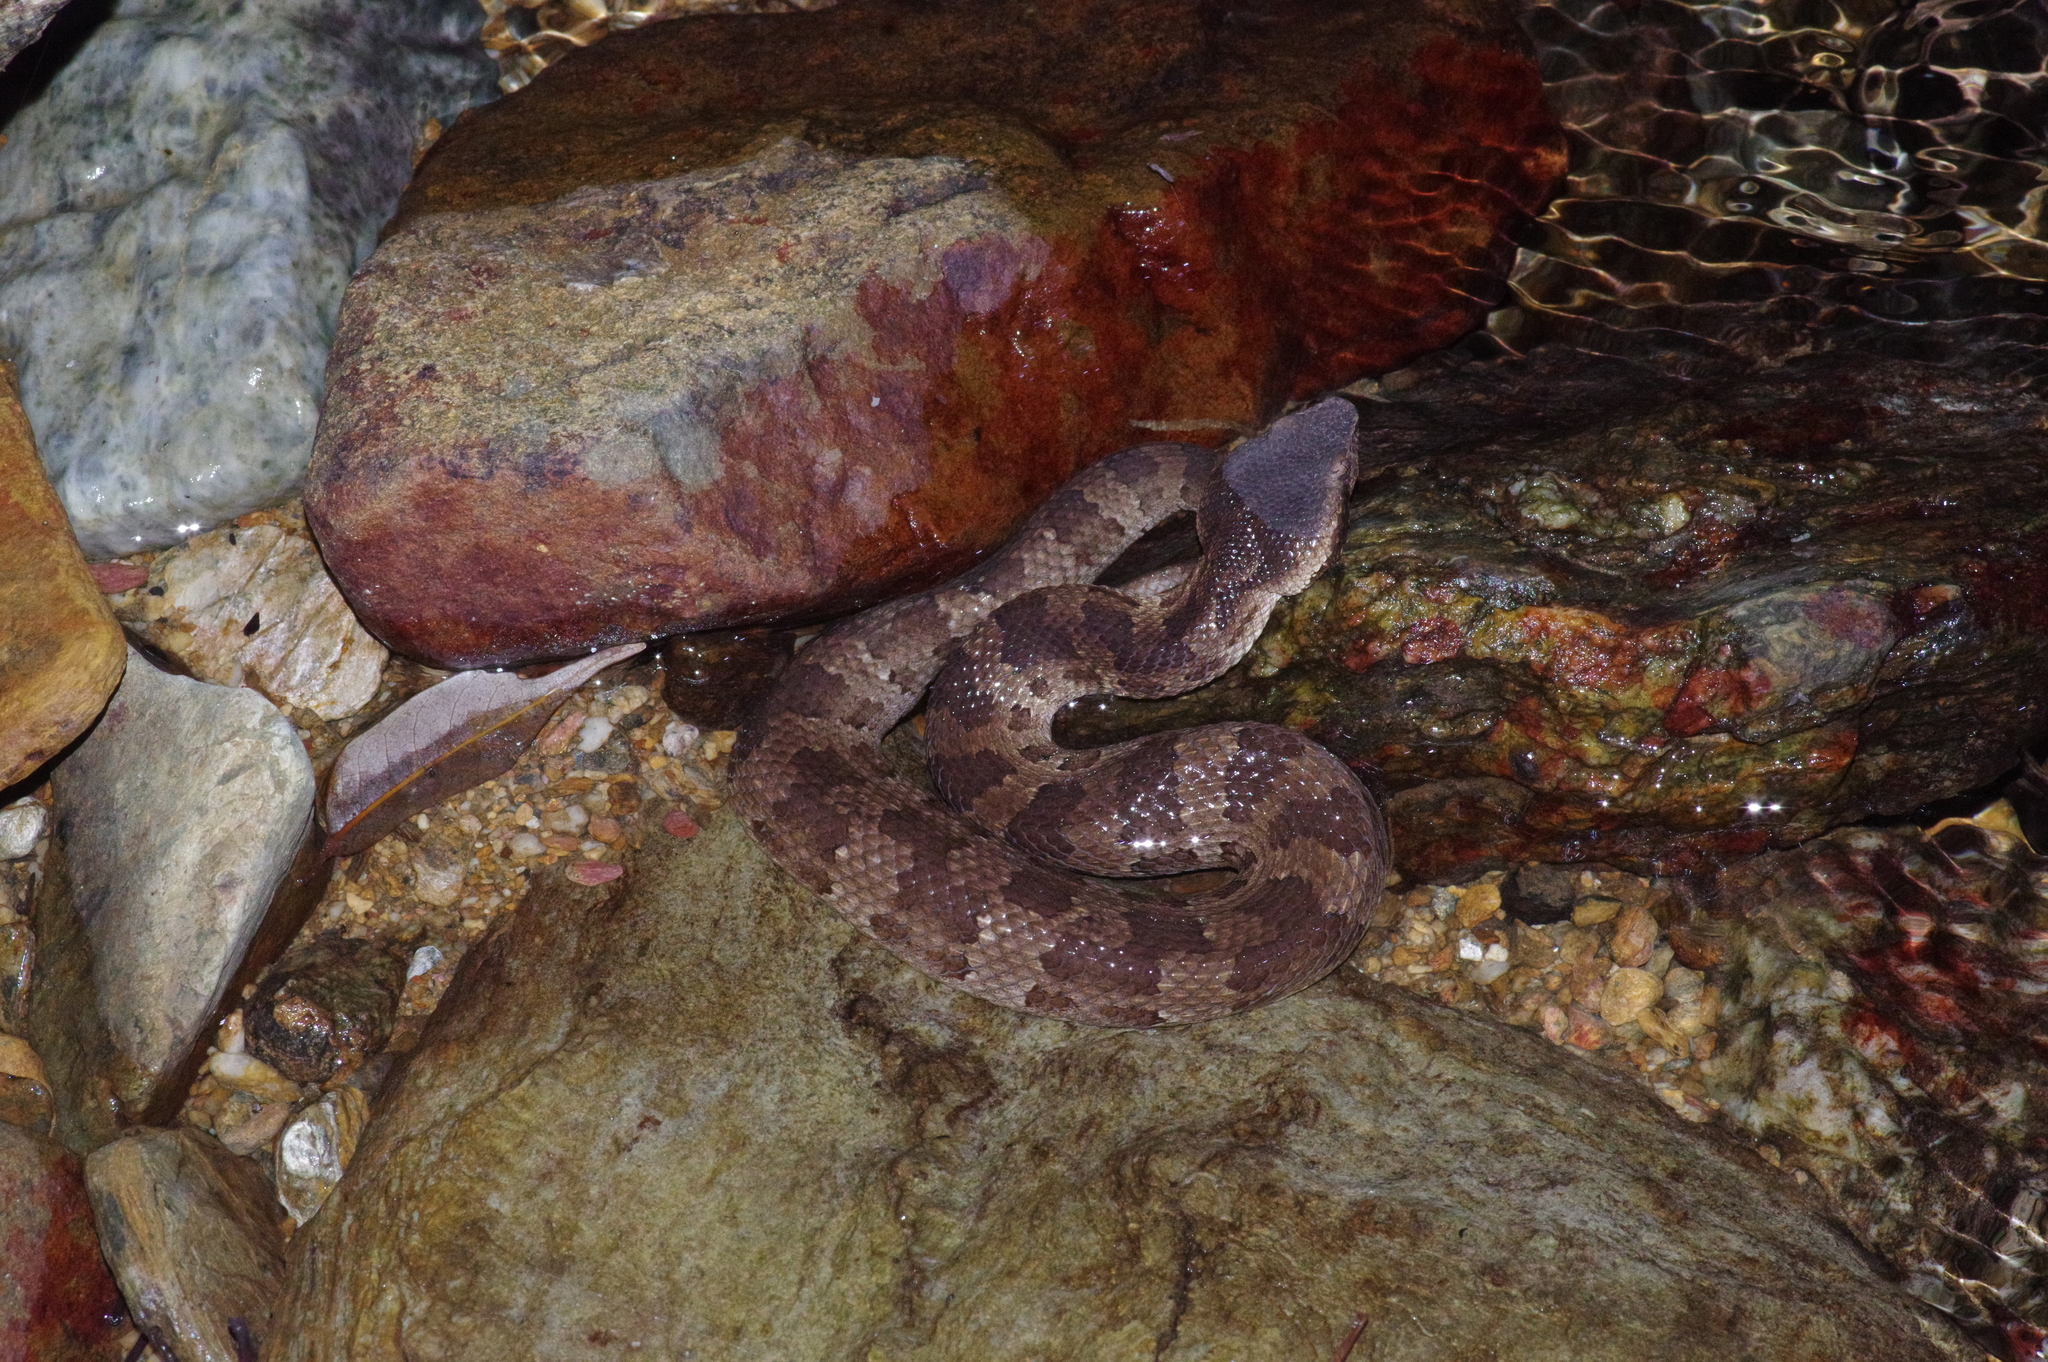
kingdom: Animalia
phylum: Chordata
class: Squamata
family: Viperidae
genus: Ovophis
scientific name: Ovophis okinavensis
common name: Okinawa pitviper
